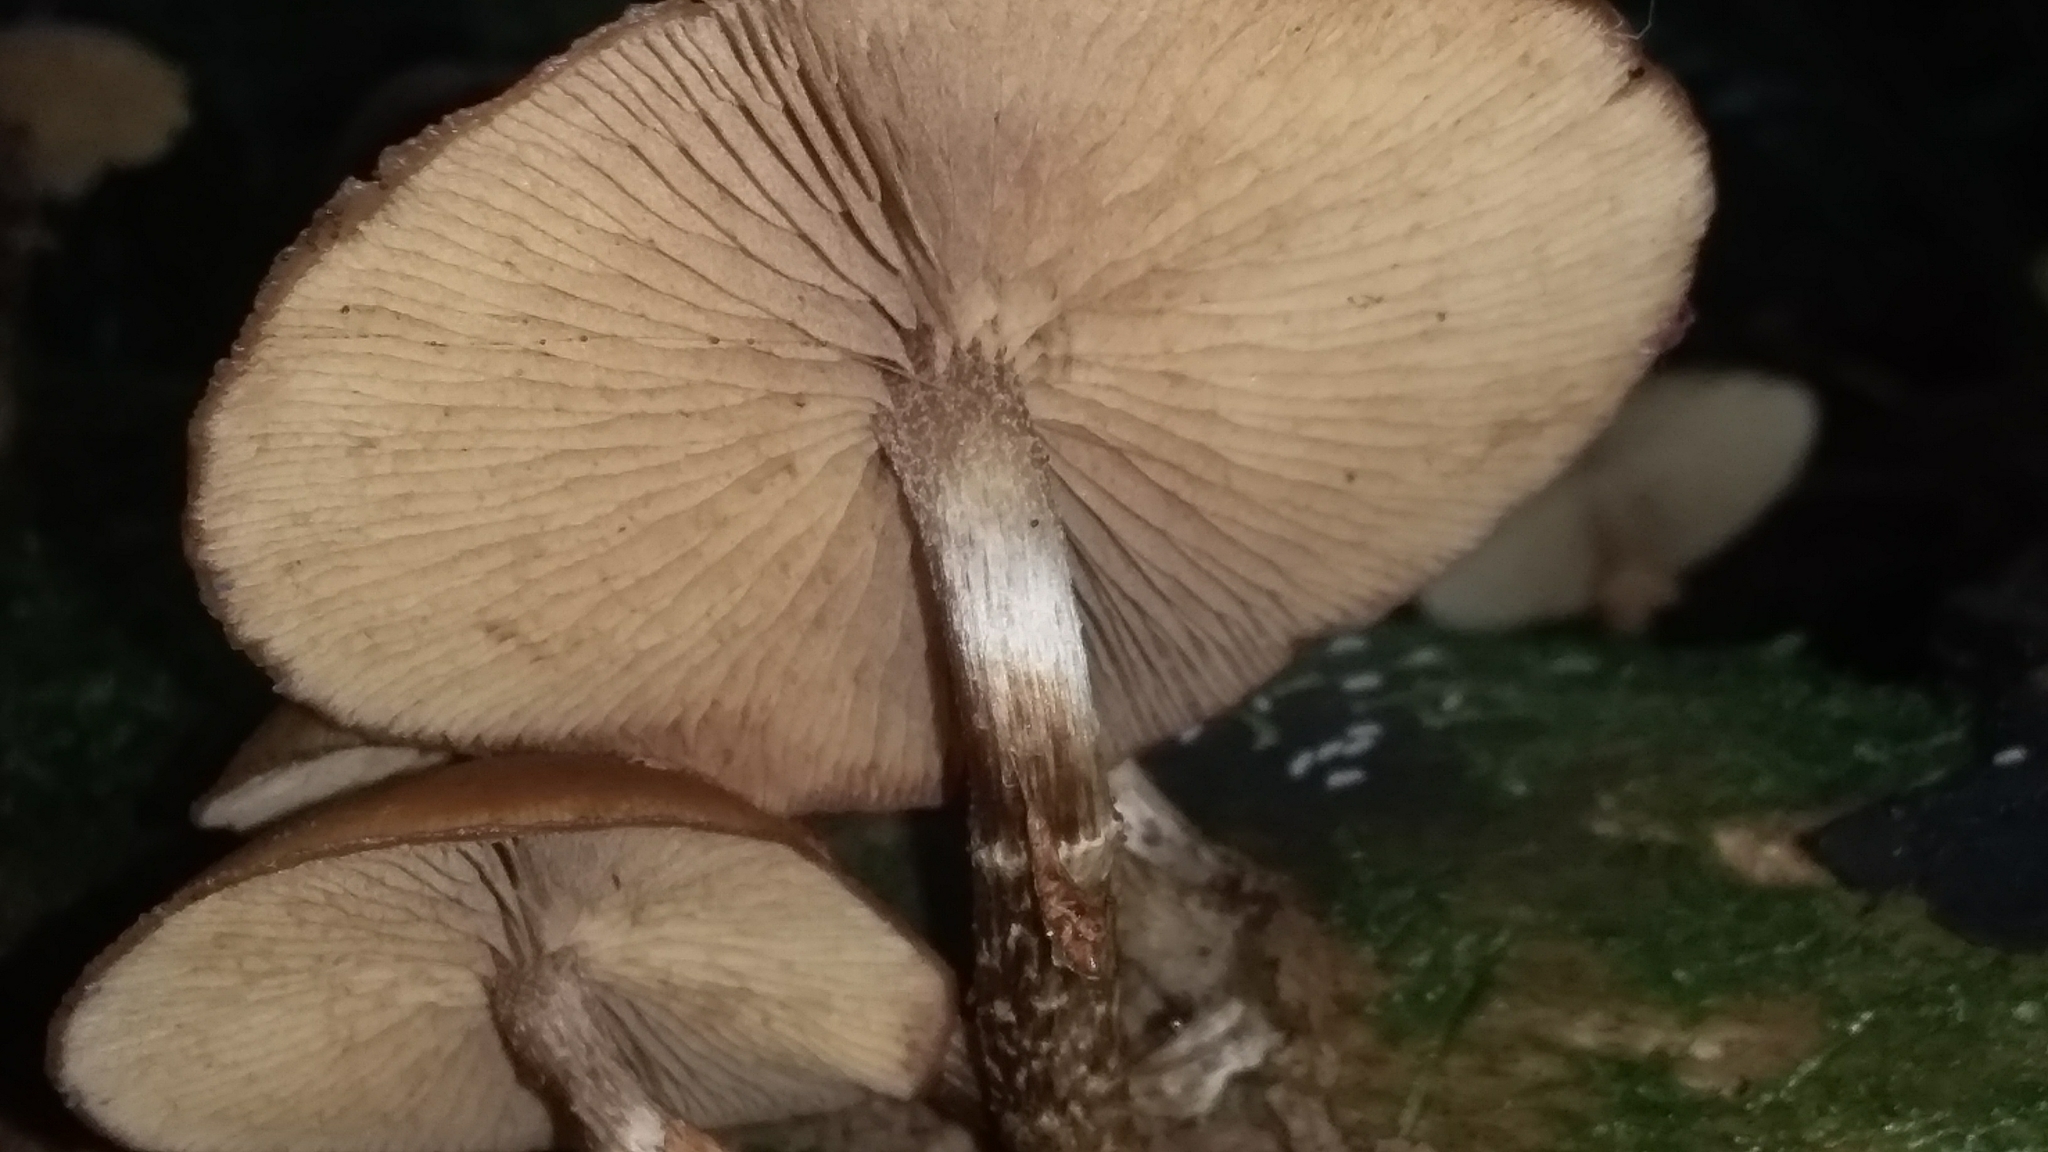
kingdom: Fungi
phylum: Basidiomycota
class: Agaricomycetes
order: Agaricales
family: Tubariaceae
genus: Cyclocybe
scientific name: Cyclocybe parasitica
